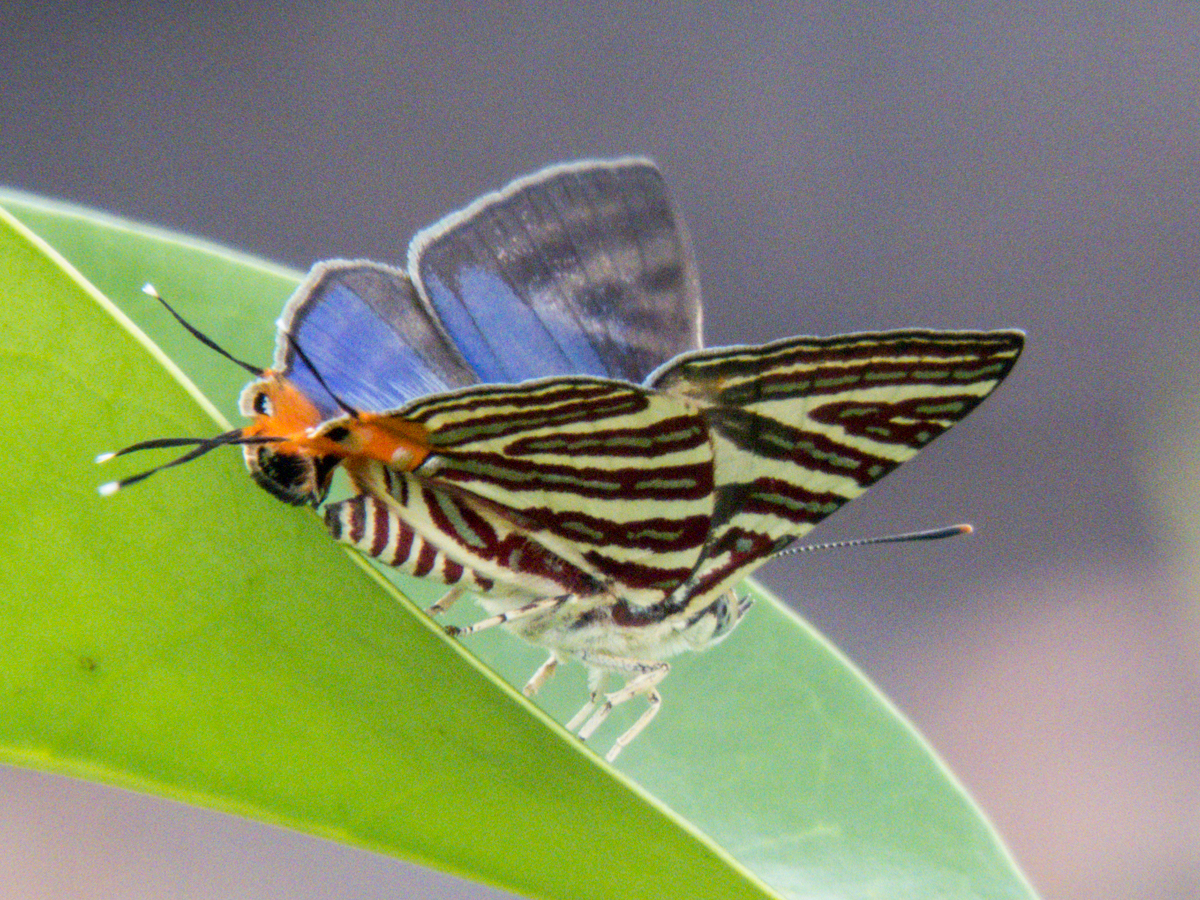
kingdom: Animalia
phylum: Arthropoda
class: Insecta
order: Lepidoptera
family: Lycaenidae
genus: Cigaritis
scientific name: Cigaritis lohita
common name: Long-banded silverline
